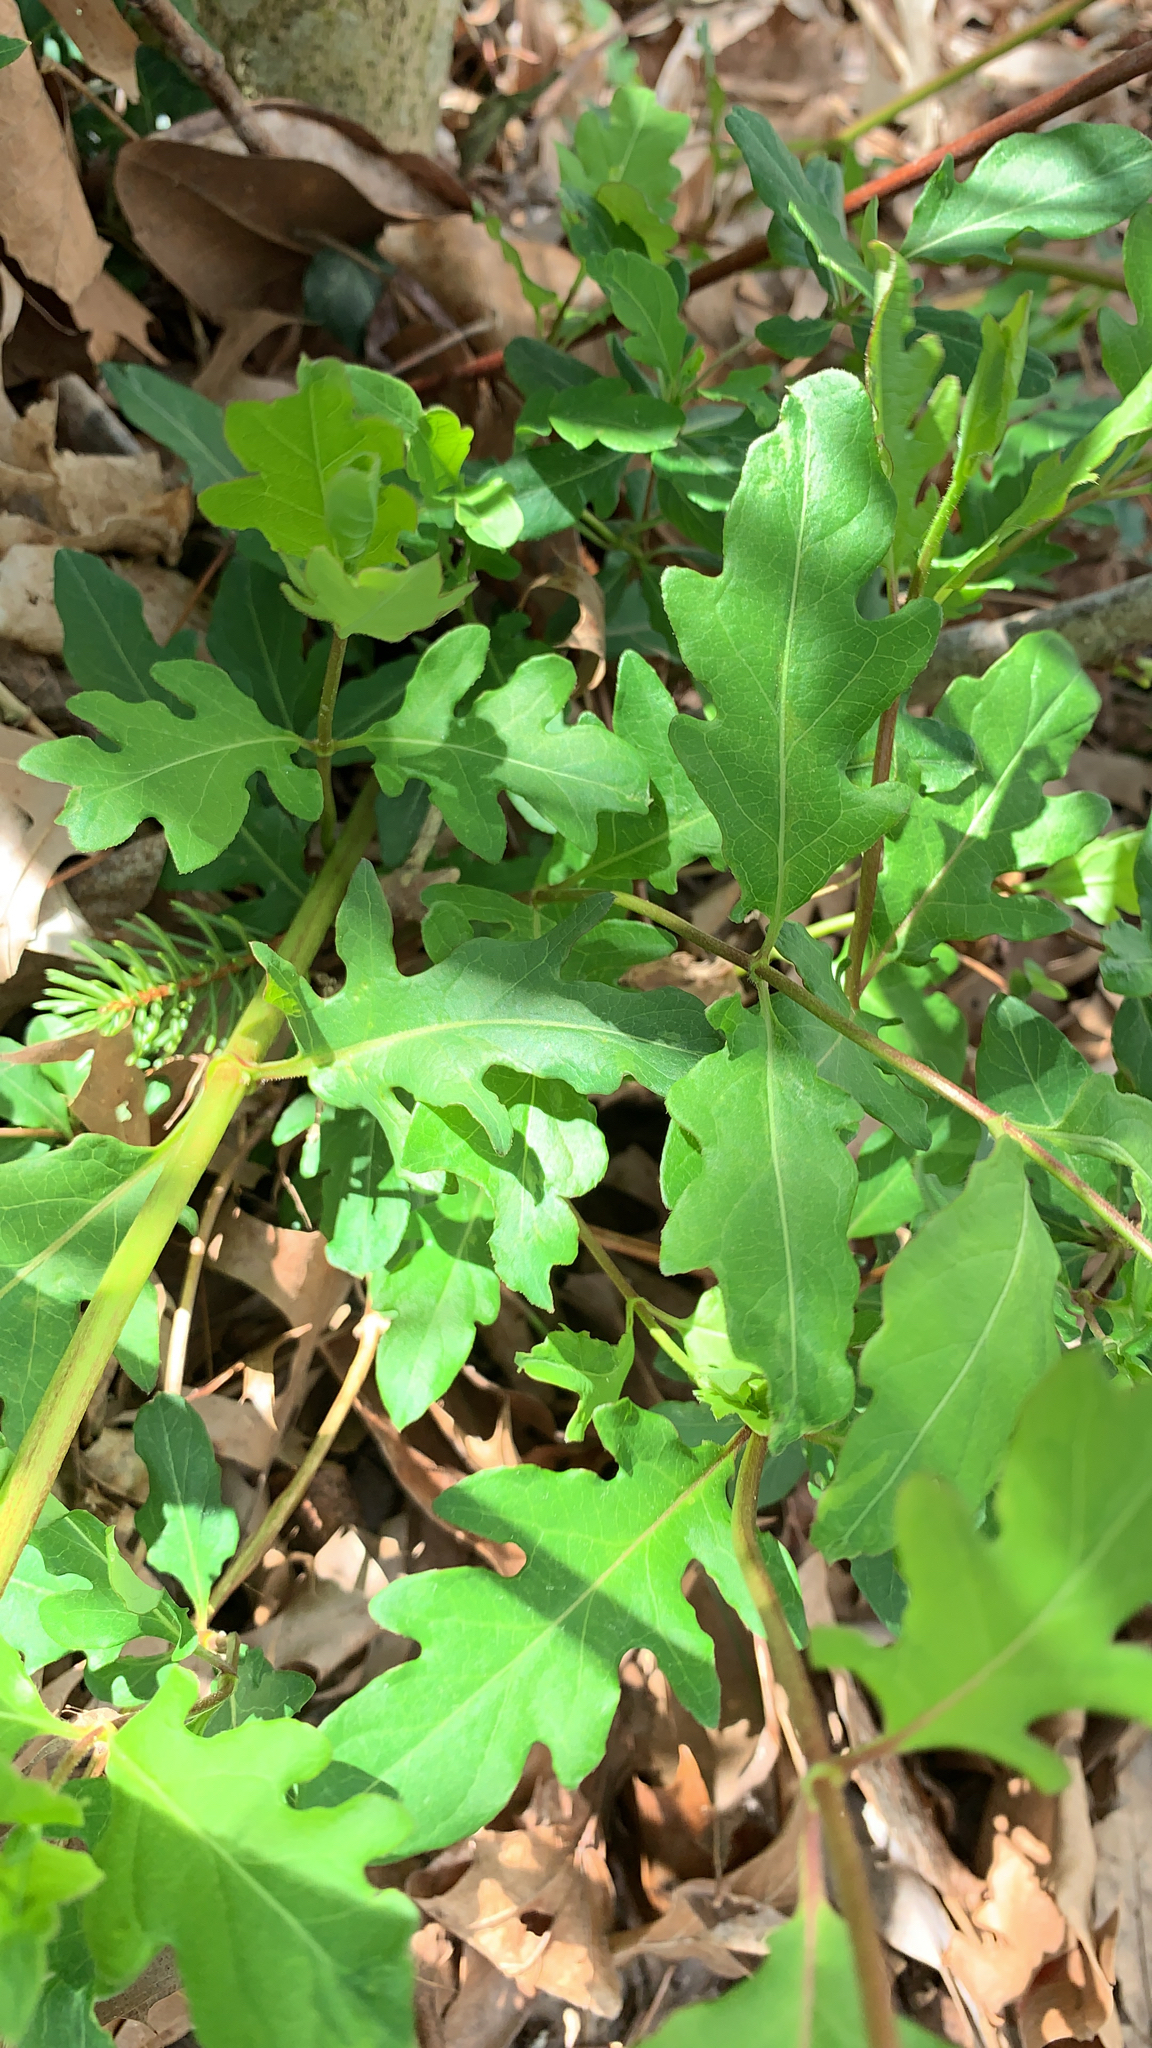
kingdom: Plantae
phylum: Tracheophyta
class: Magnoliopsida
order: Dipsacales
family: Caprifoliaceae
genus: Lonicera
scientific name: Lonicera japonica
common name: Japanese honeysuckle
